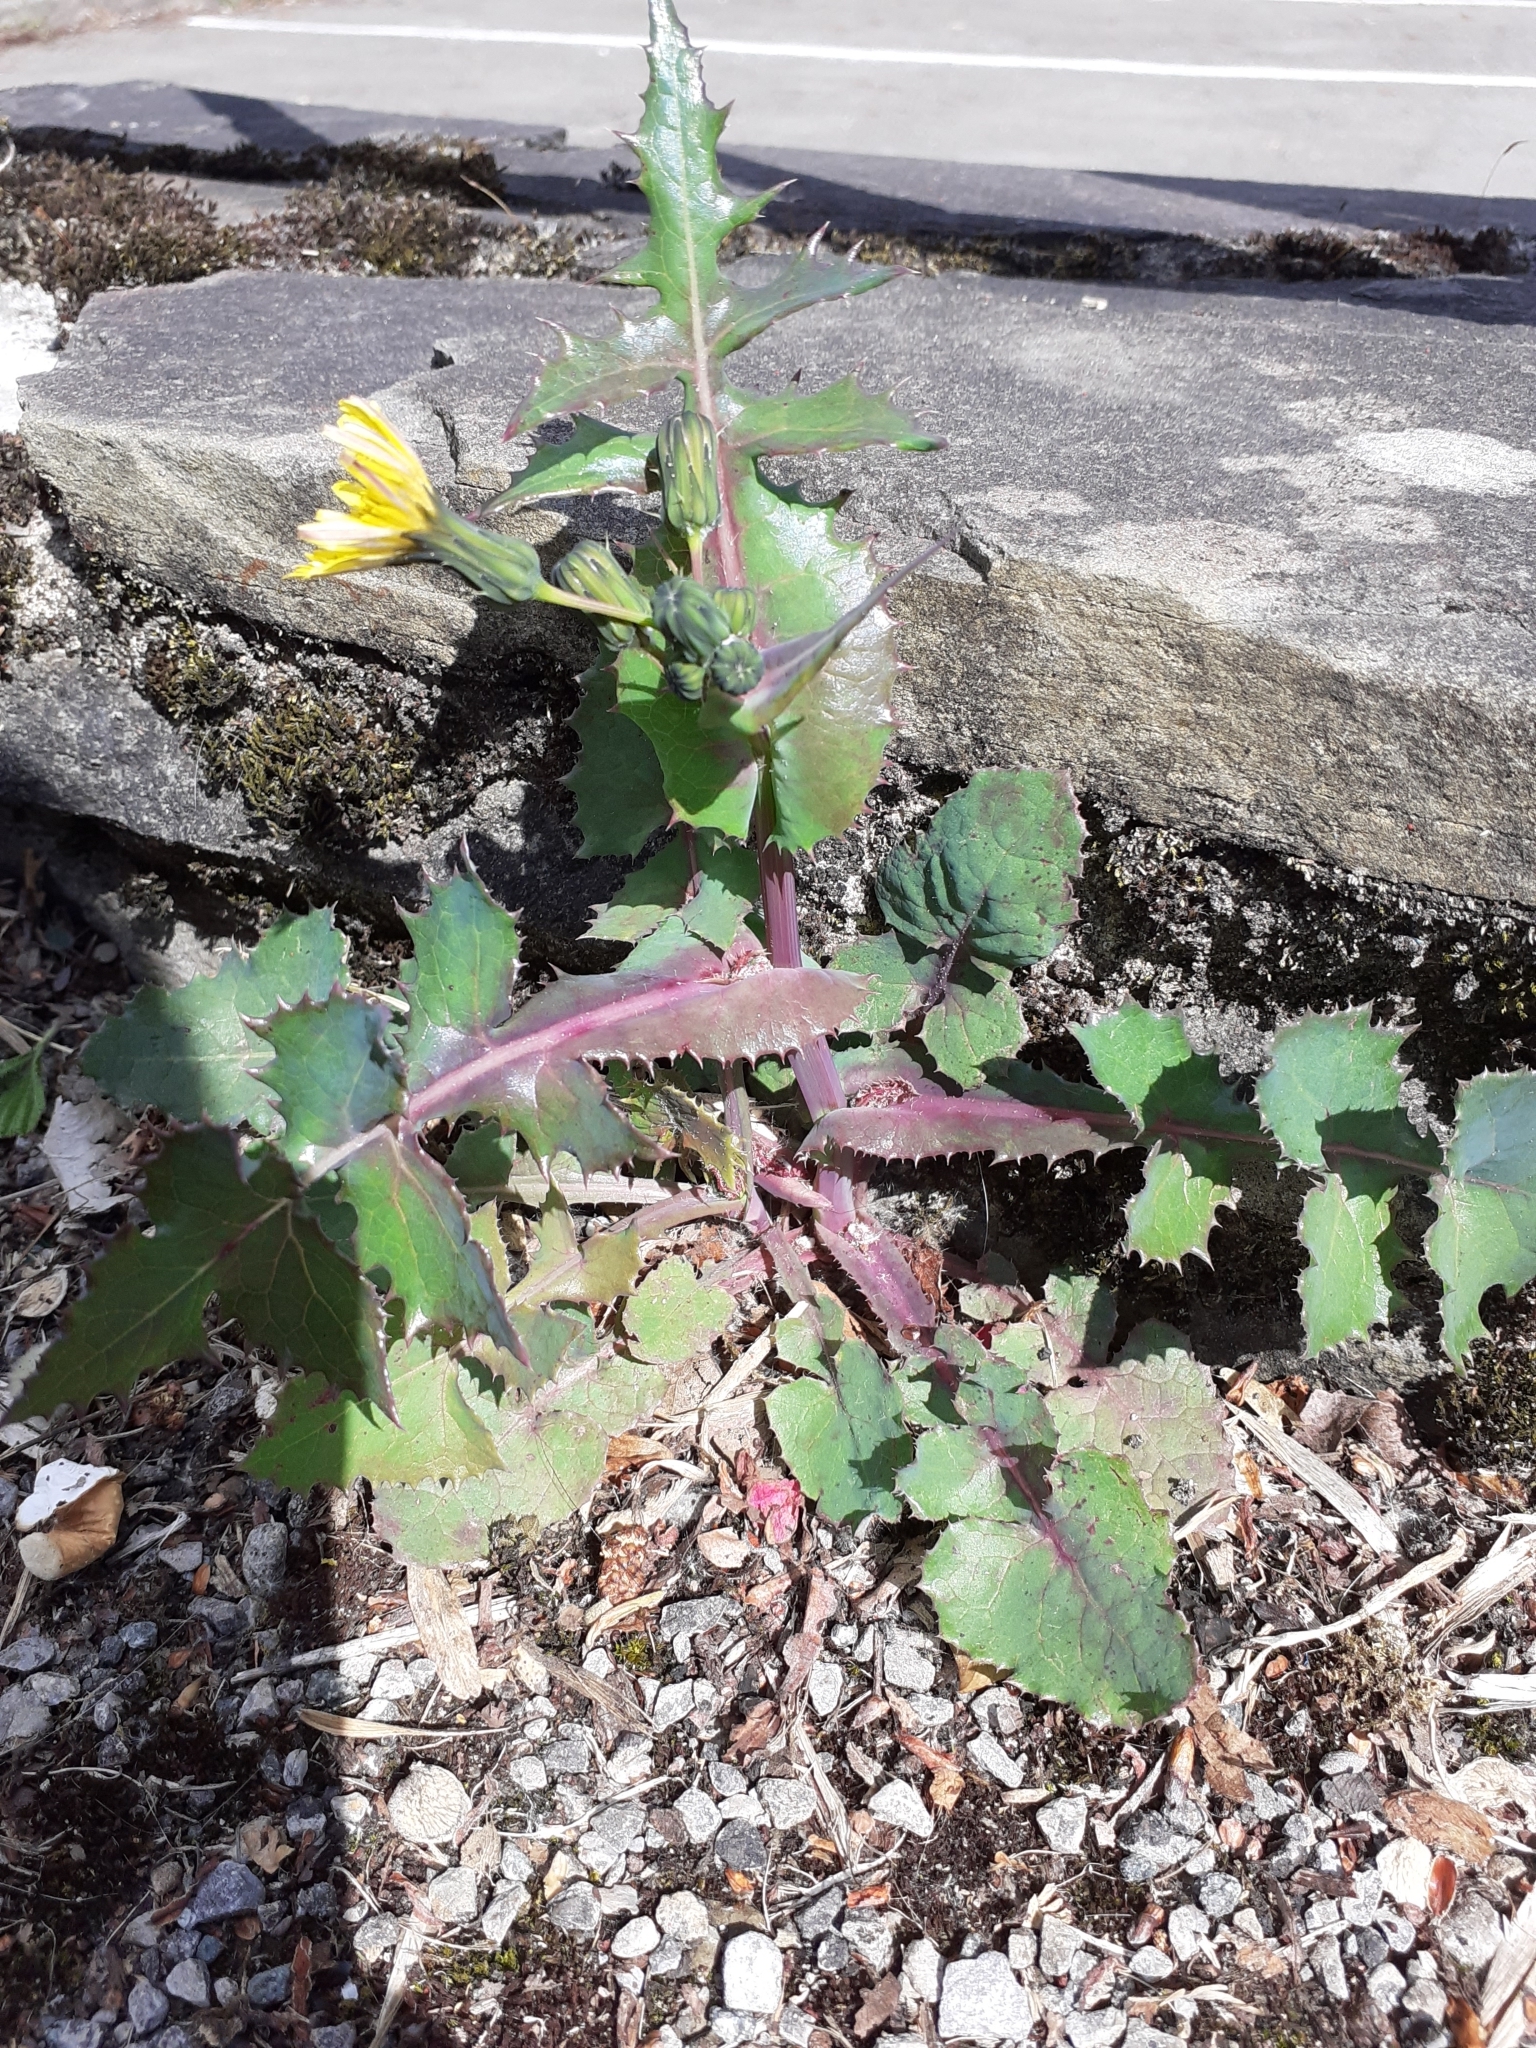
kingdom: Plantae
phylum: Tracheophyta
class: Magnoliopsida
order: Asterales
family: Asteraceae
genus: Sonchus
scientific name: Sonchus oleraceus
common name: Common sowthistle
